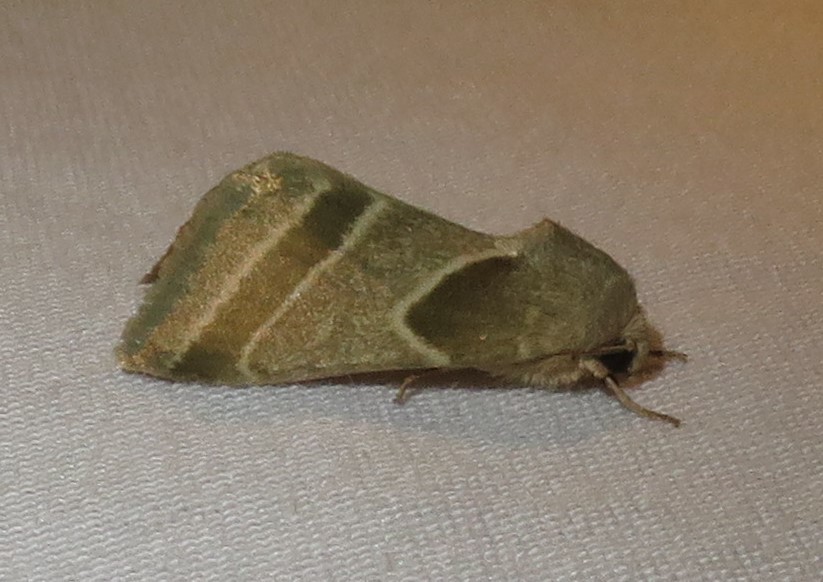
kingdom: Animalia
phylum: Arthropoda
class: Insecta
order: Lepidoptera
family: Noctuidae
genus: Schinia
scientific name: Schinia jaguarina
